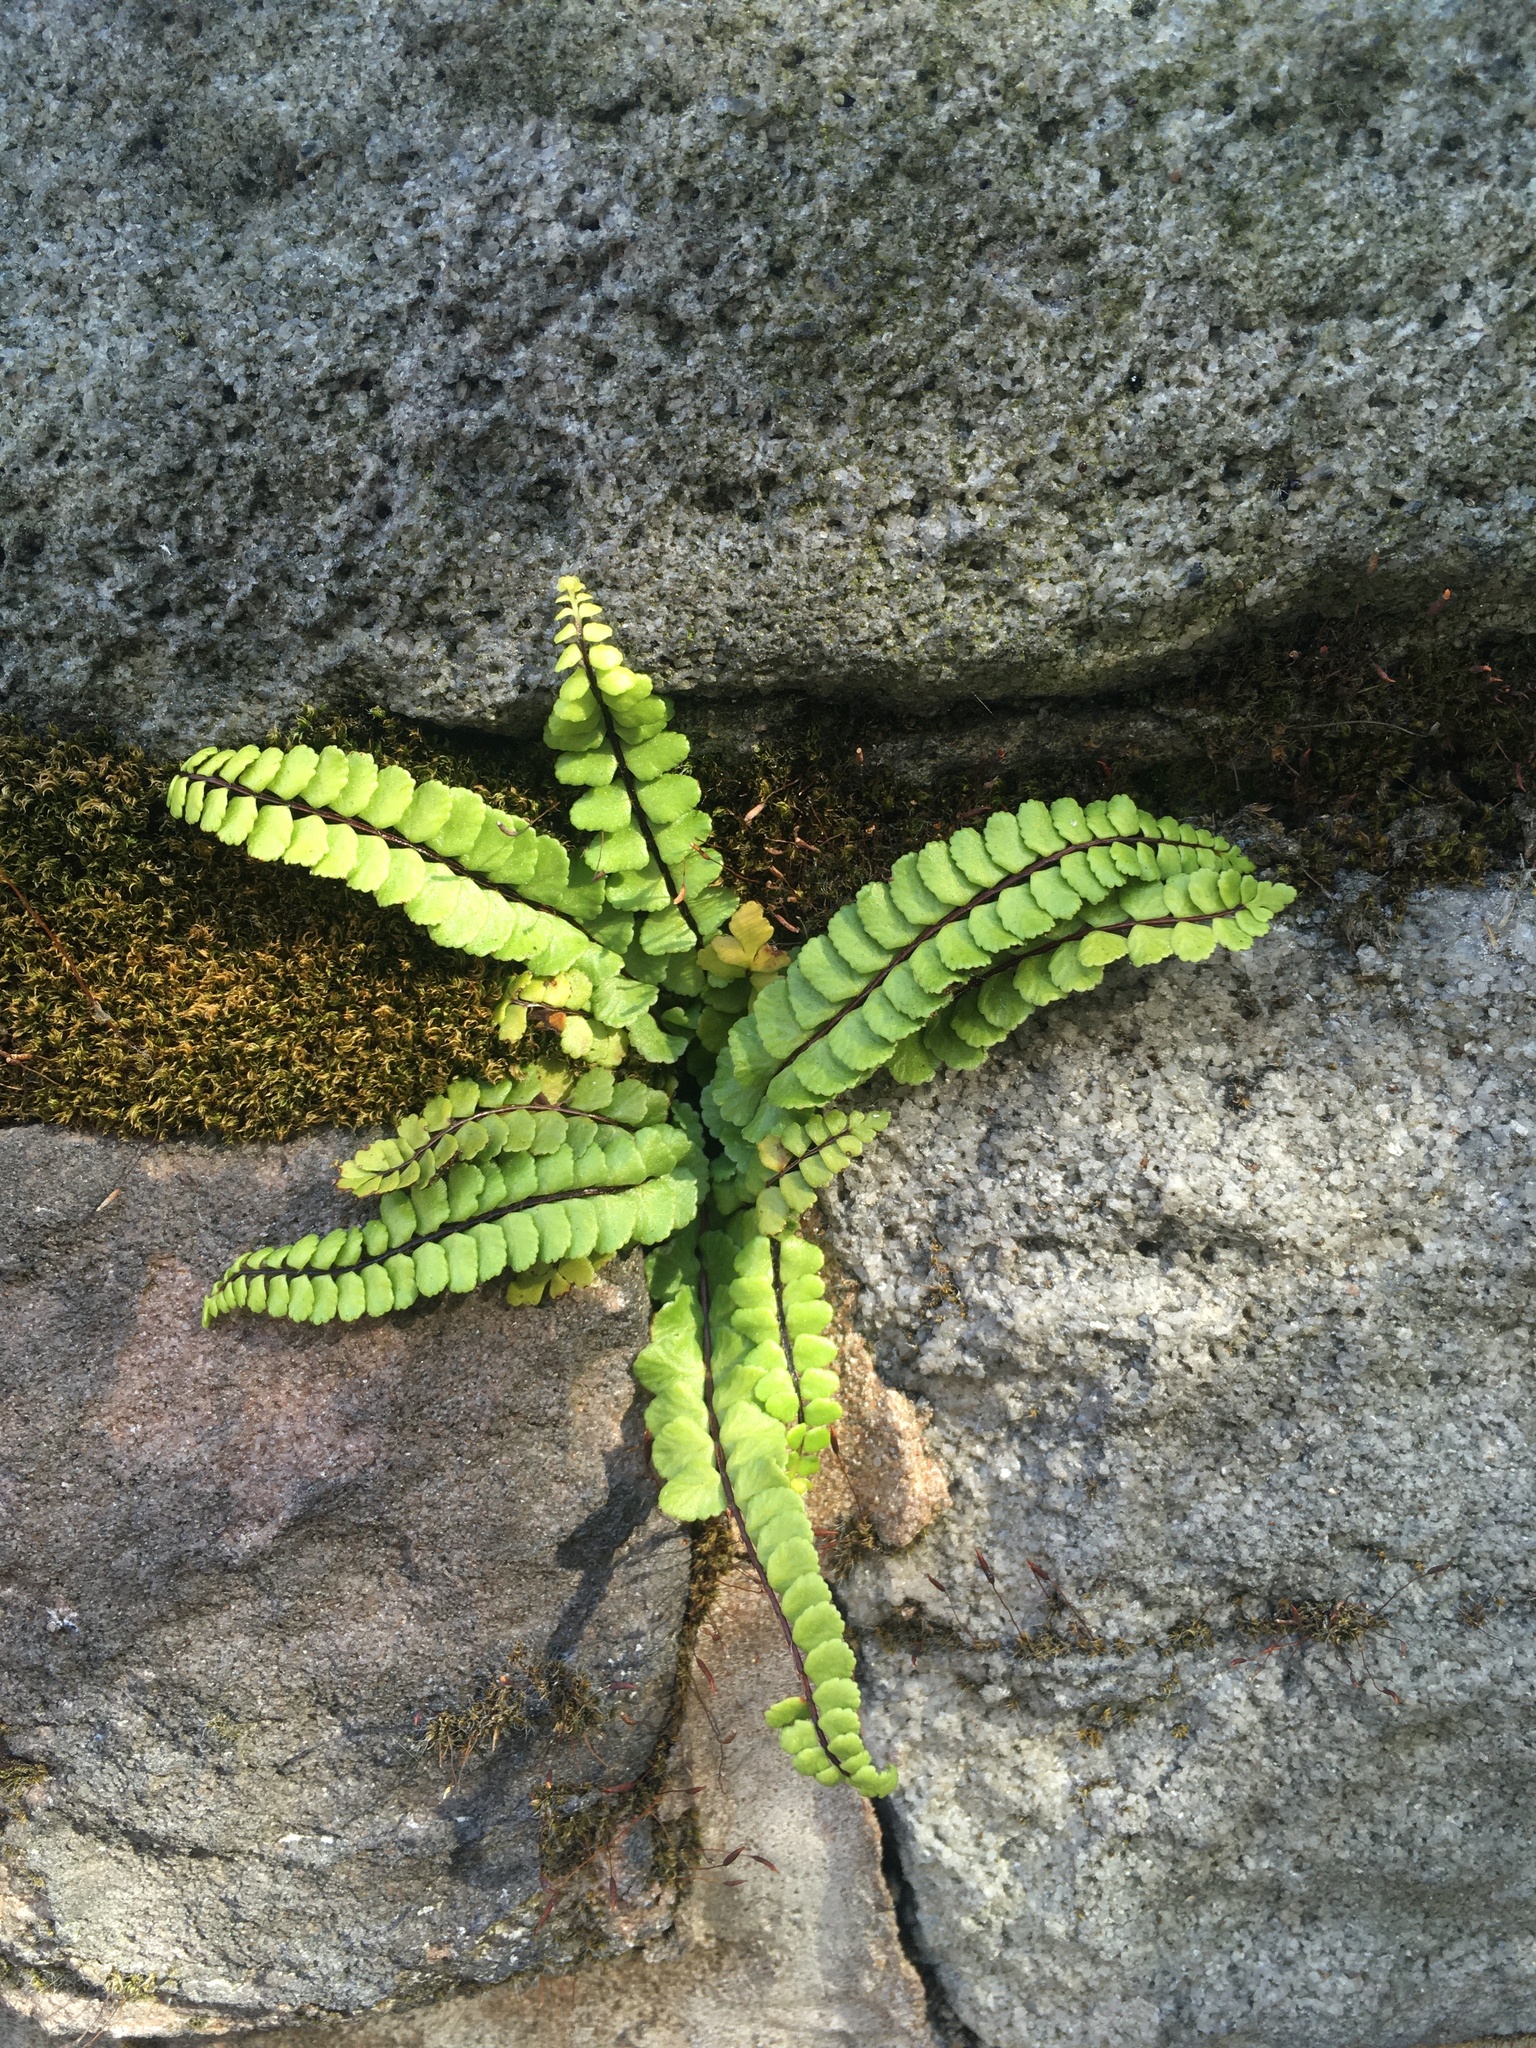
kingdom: Plantae
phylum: Tracheophyta
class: Polypodiopsida
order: Polypodiales
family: Aspleniaceae
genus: Asplenium
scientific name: Asplenium trichomanes
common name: Maidenhair spleenwort
